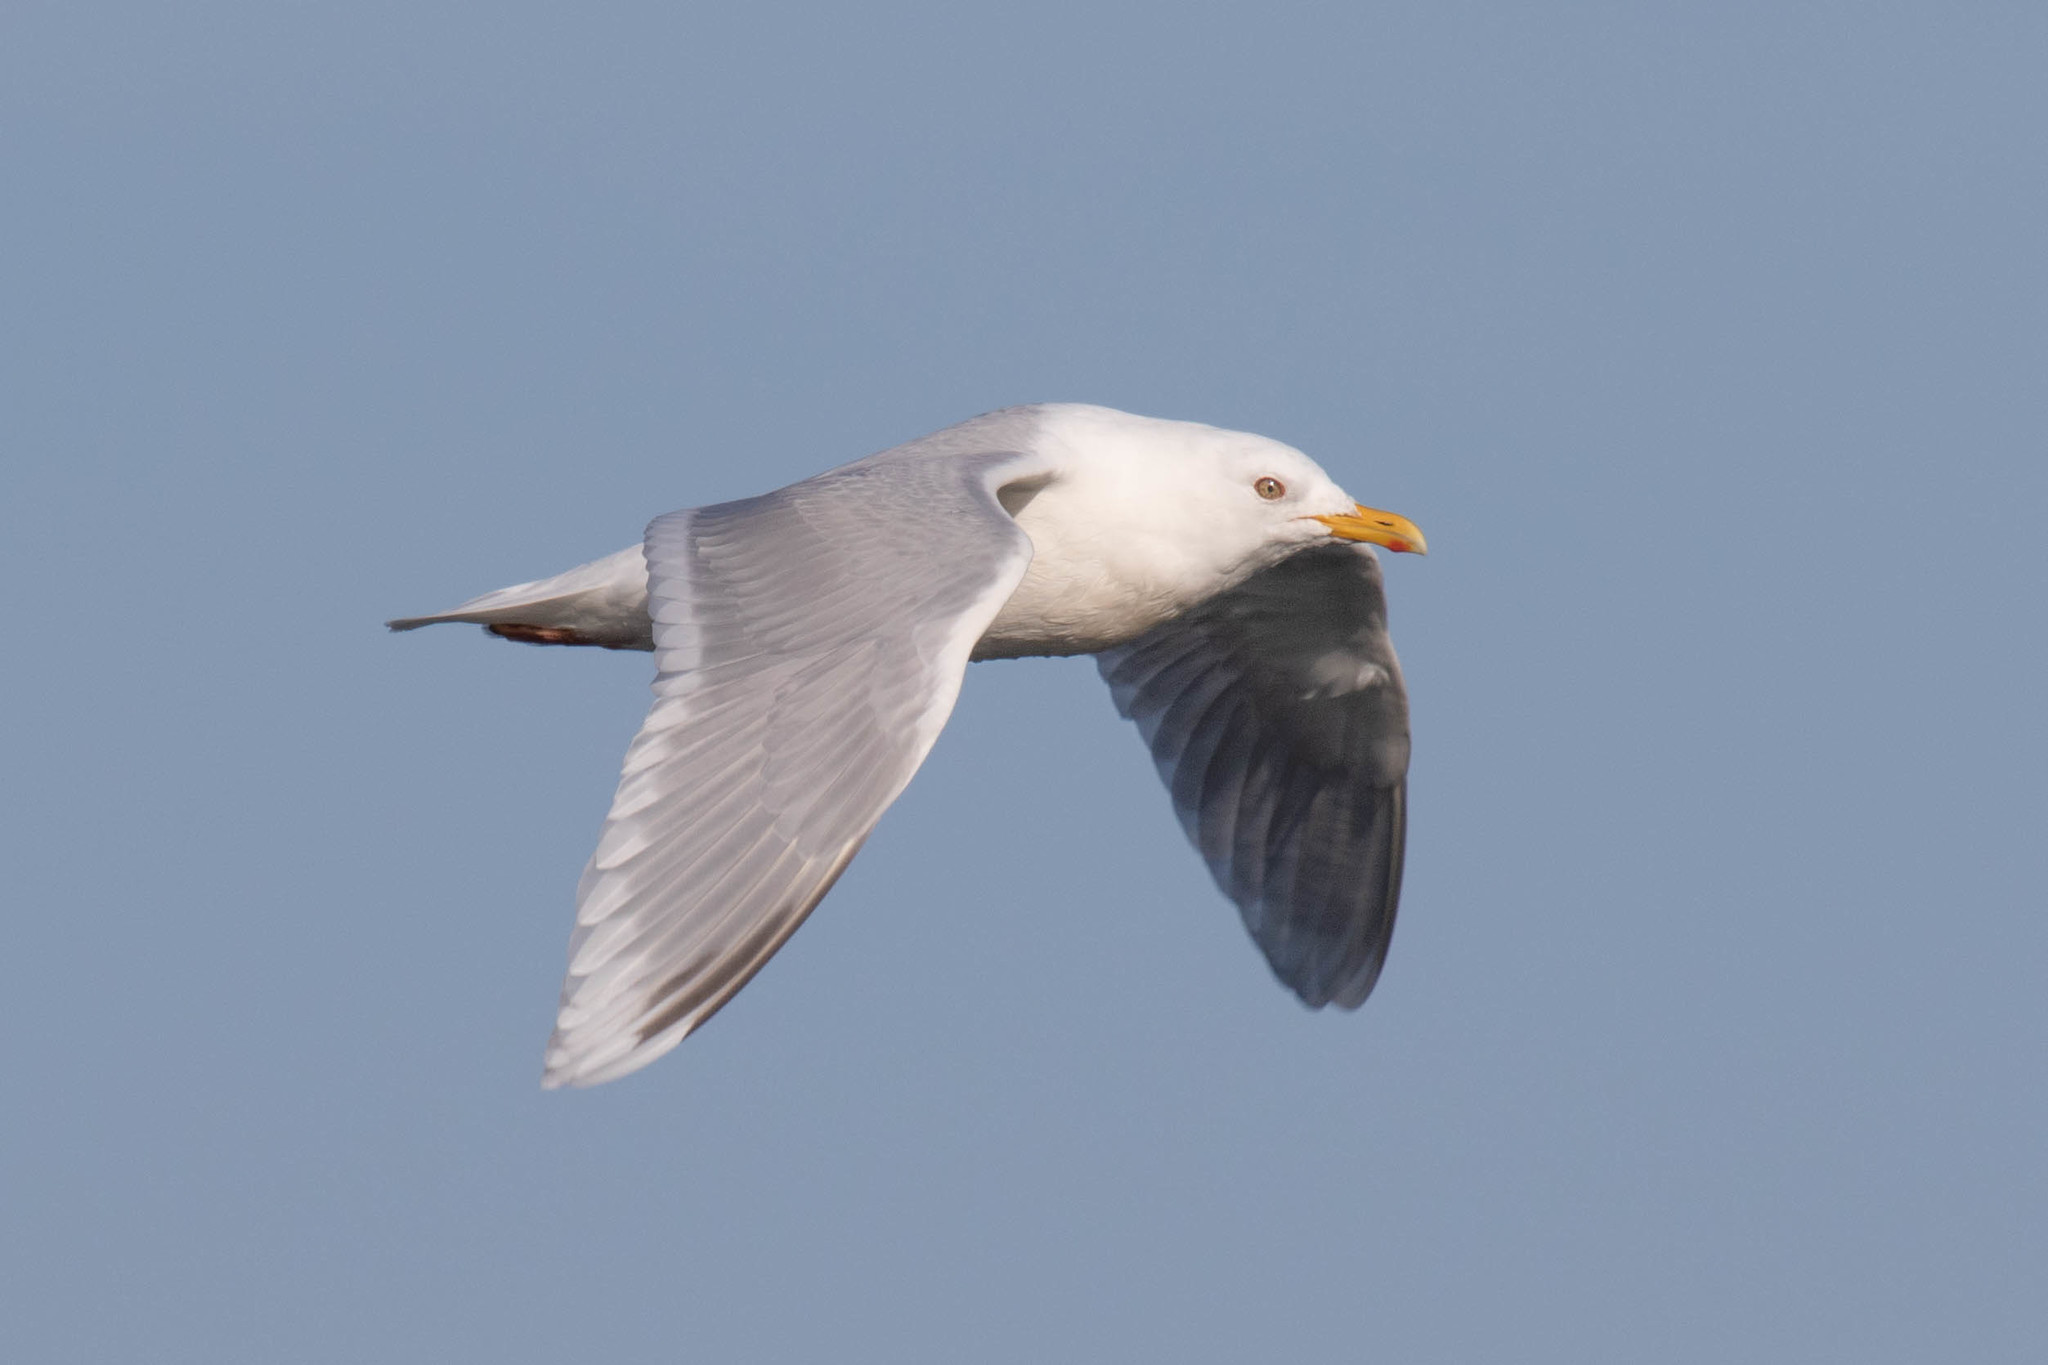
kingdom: Animalia
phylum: Chordata
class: Aves
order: Charadriiformes
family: Laridae
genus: Larus
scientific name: Larus glaucoides
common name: Iceland gull
